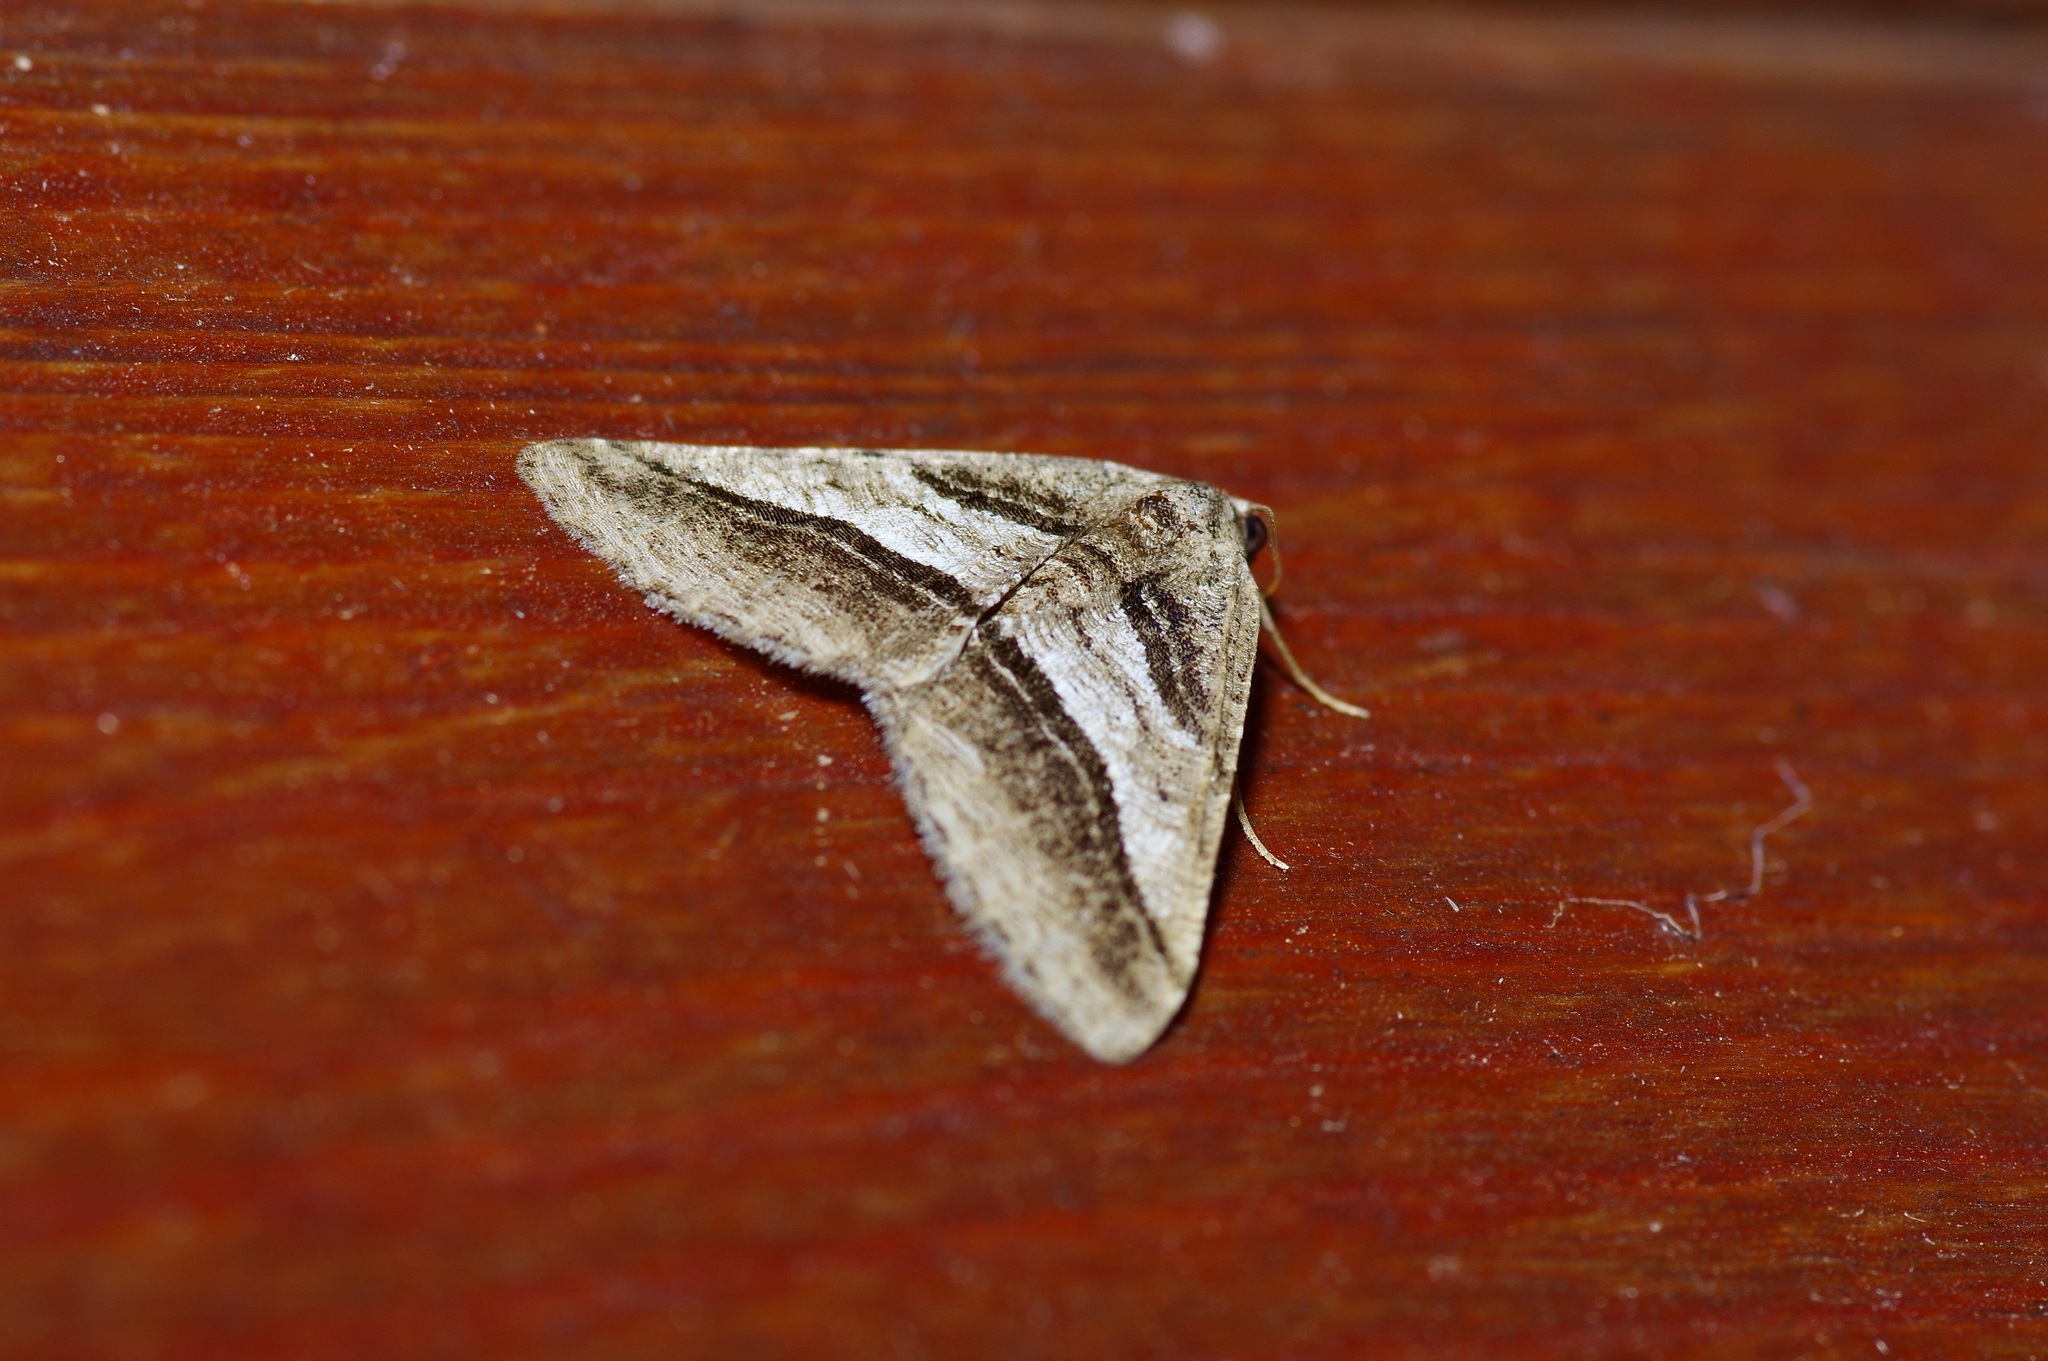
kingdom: Animalia
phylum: Arthropoda
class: Insecta
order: Lepidoptera
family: Geometridae
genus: Digrammia
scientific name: Digrammia atrofasciata
